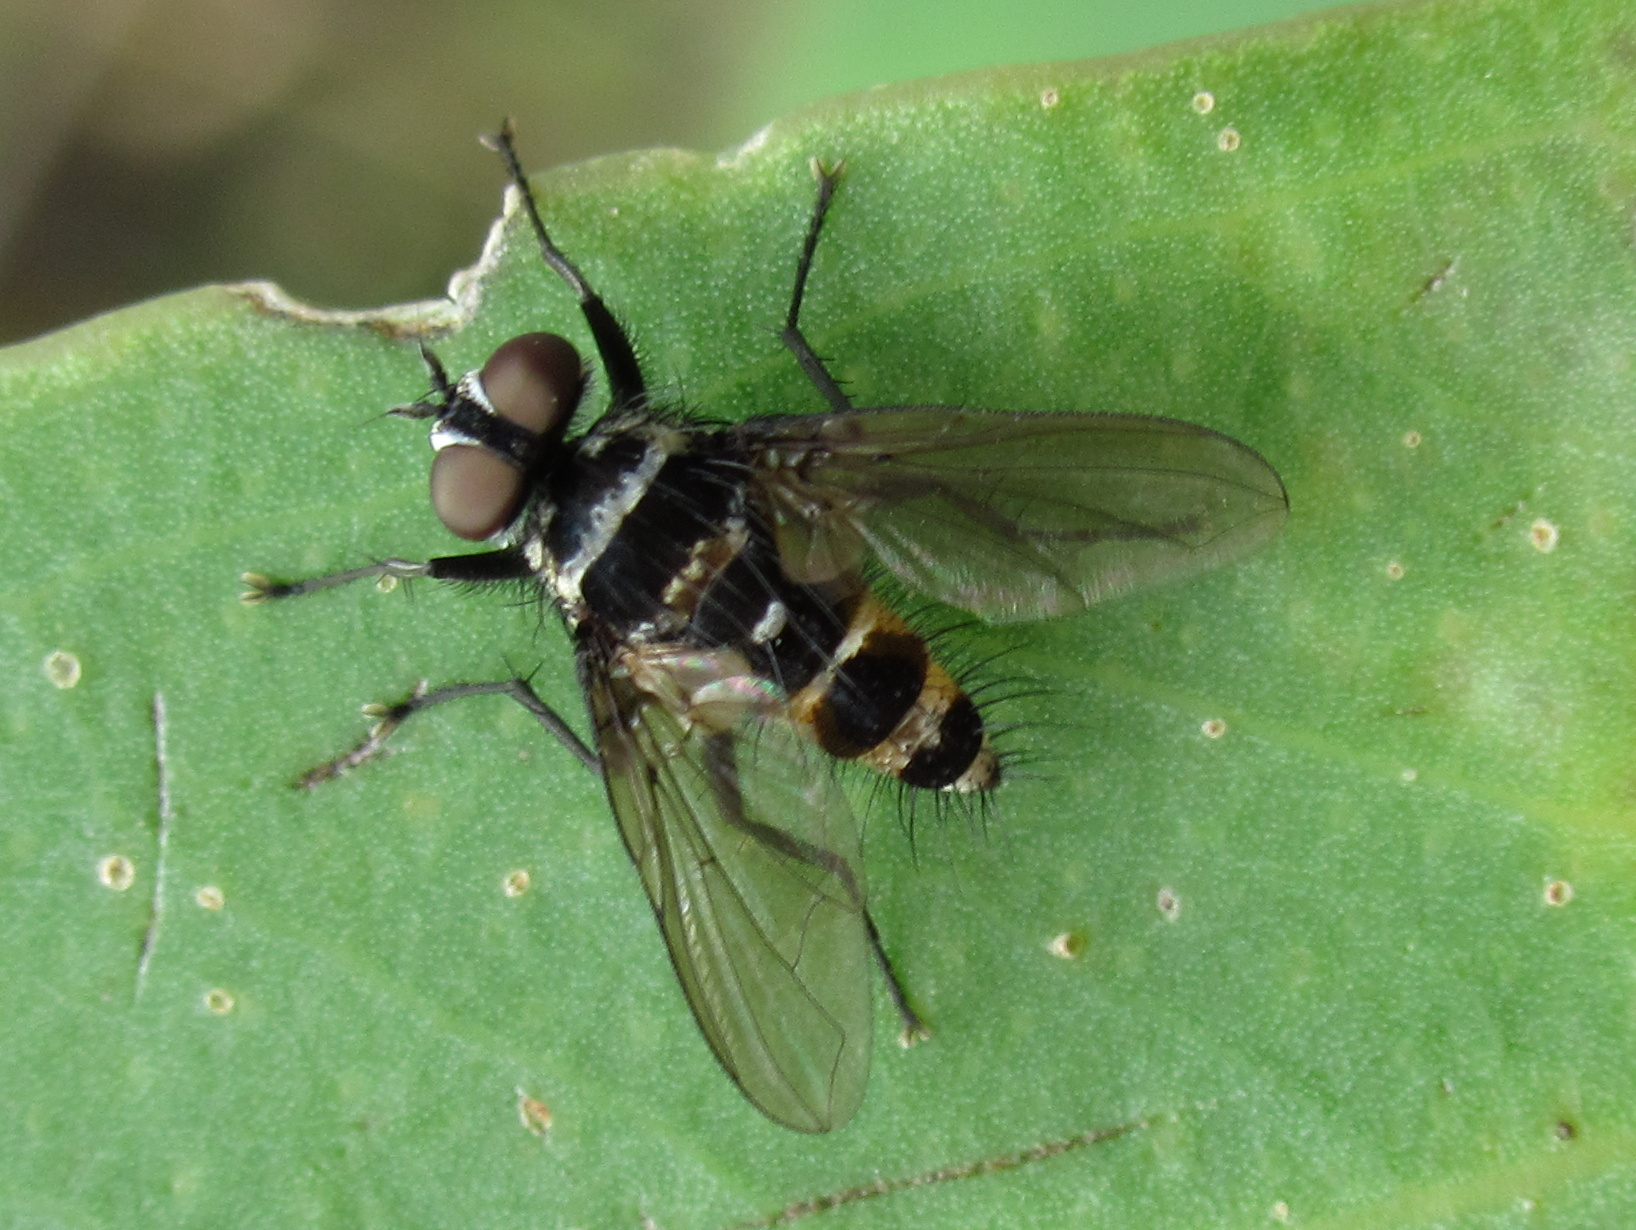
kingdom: Animalia
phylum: Arthropoda
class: Insecta
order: Diptera
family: Tachinidae
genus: Trigonospila
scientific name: Trigonospila brevifacies
